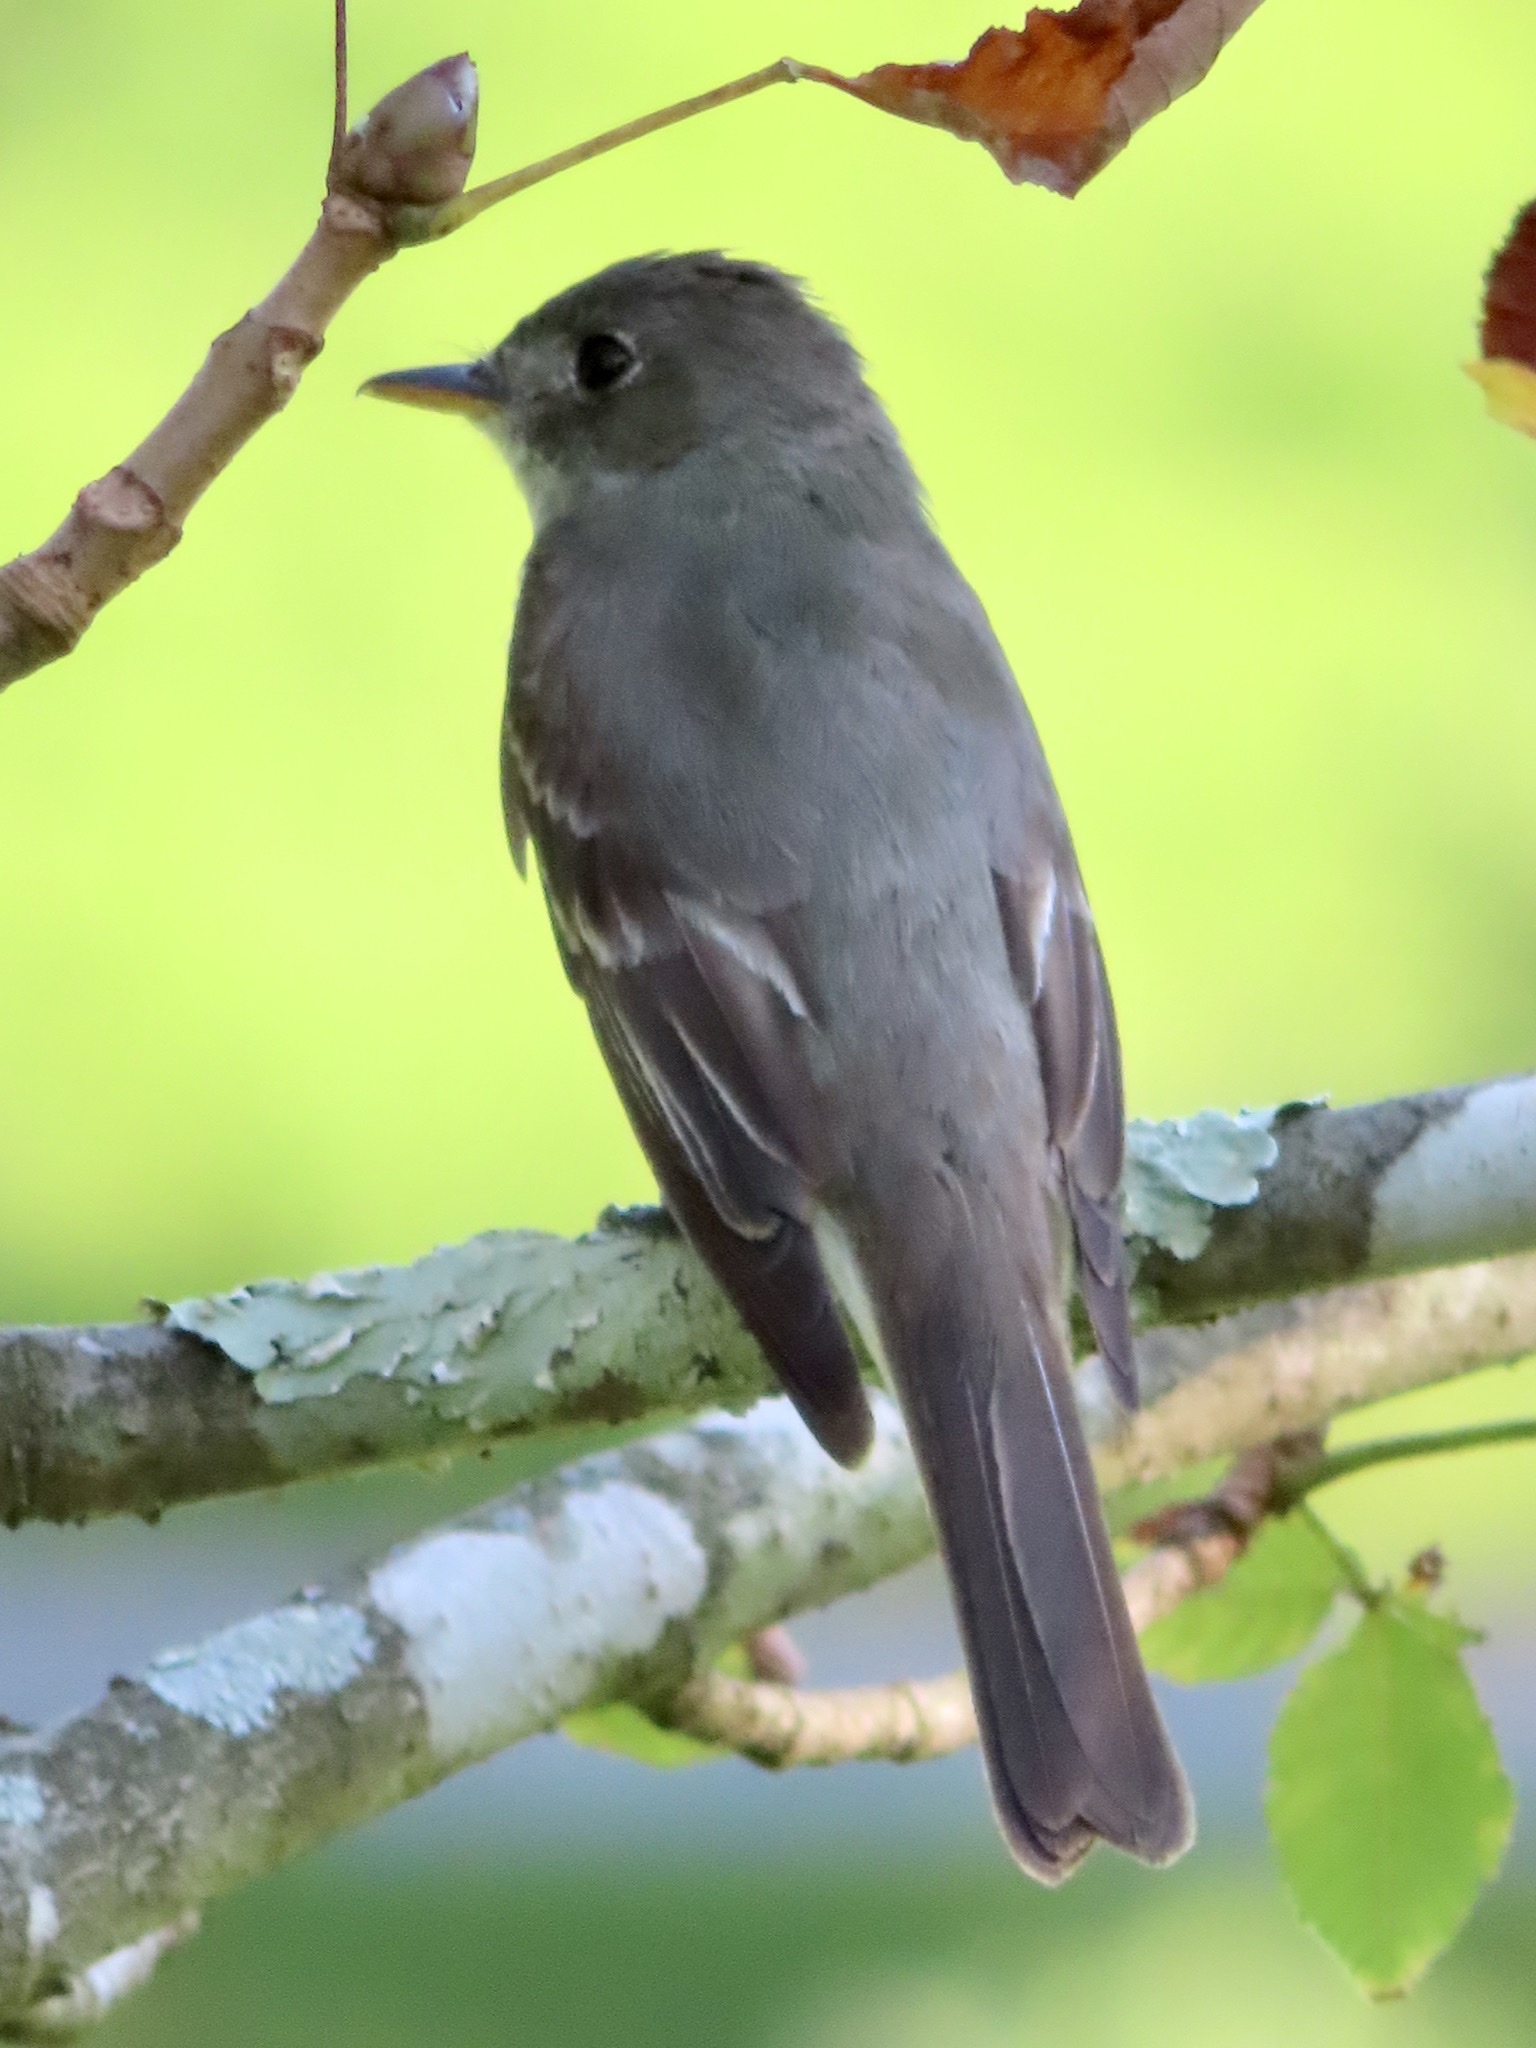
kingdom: Animalia
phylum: Chordata
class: Aves
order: Passeriformes
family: Tyrannidae
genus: Contopus
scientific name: Contopus virens
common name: Eastern wood-pewee
